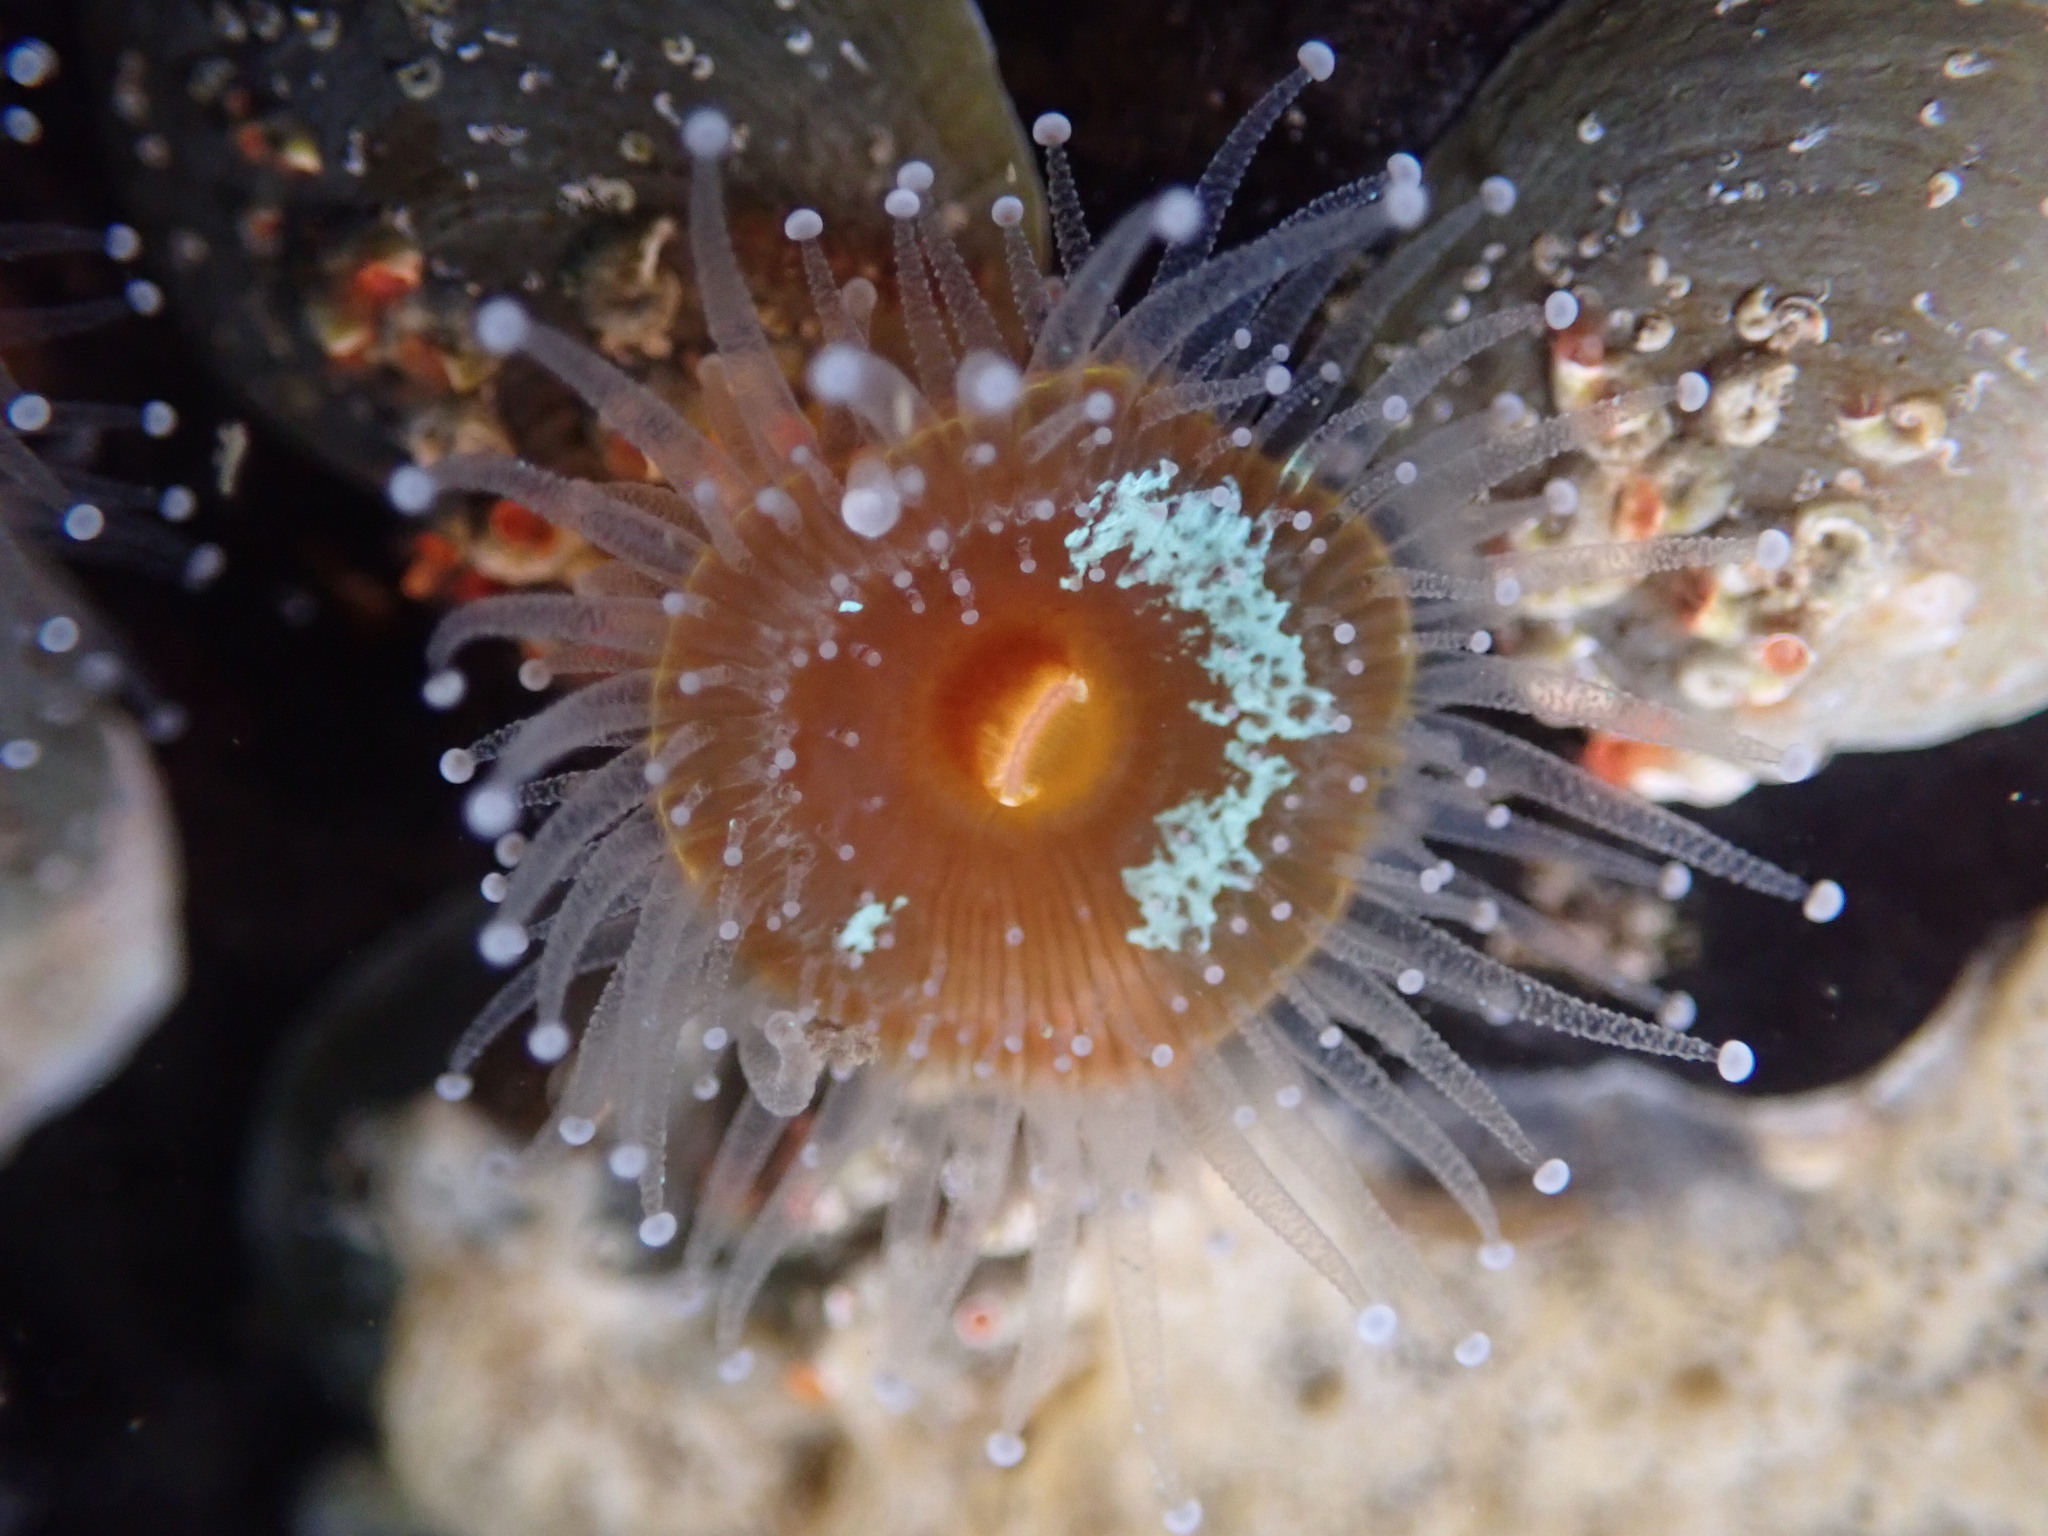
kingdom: Animalia
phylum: Cnidaria
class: Anthozoa
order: Corallimorpharia
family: Corallimorphidae
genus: Corynactis
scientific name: Corynactis californica
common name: Strawberry corallimorpharian
